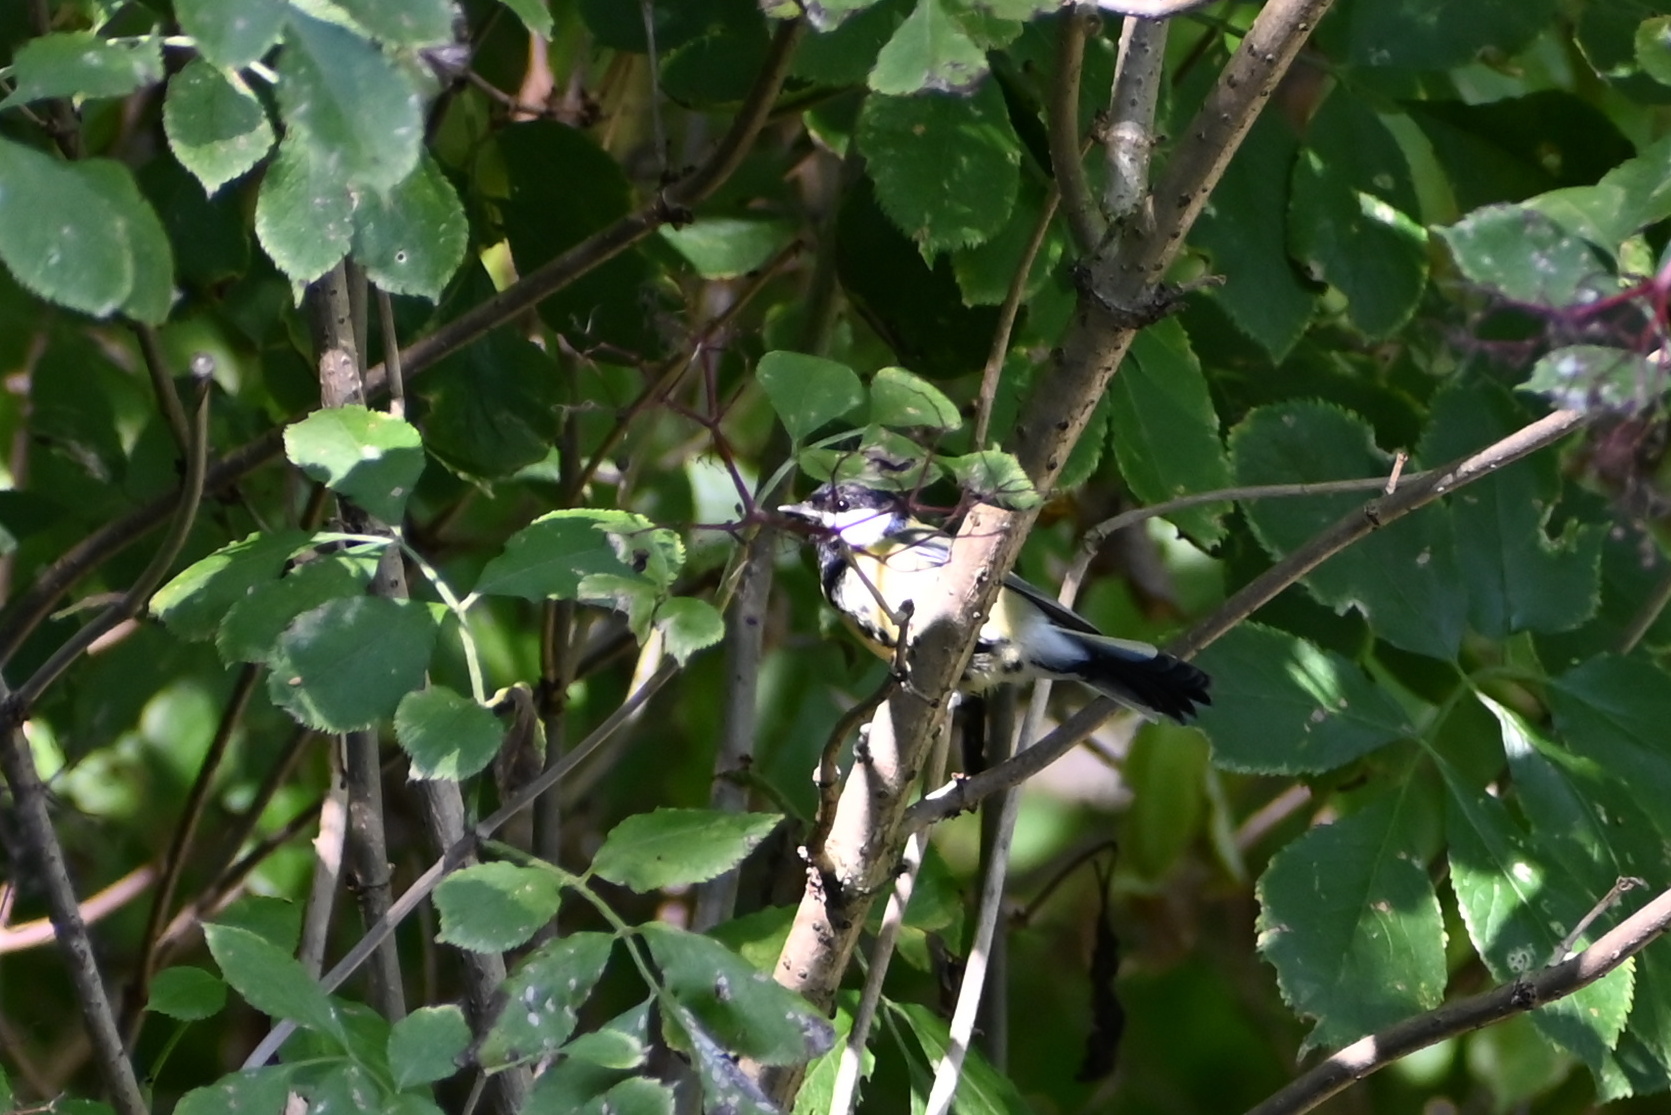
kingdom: Animalia
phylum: Chordata
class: Aves
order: Passeriformes
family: Paridae
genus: Parus
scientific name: Parus major
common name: Great tit
